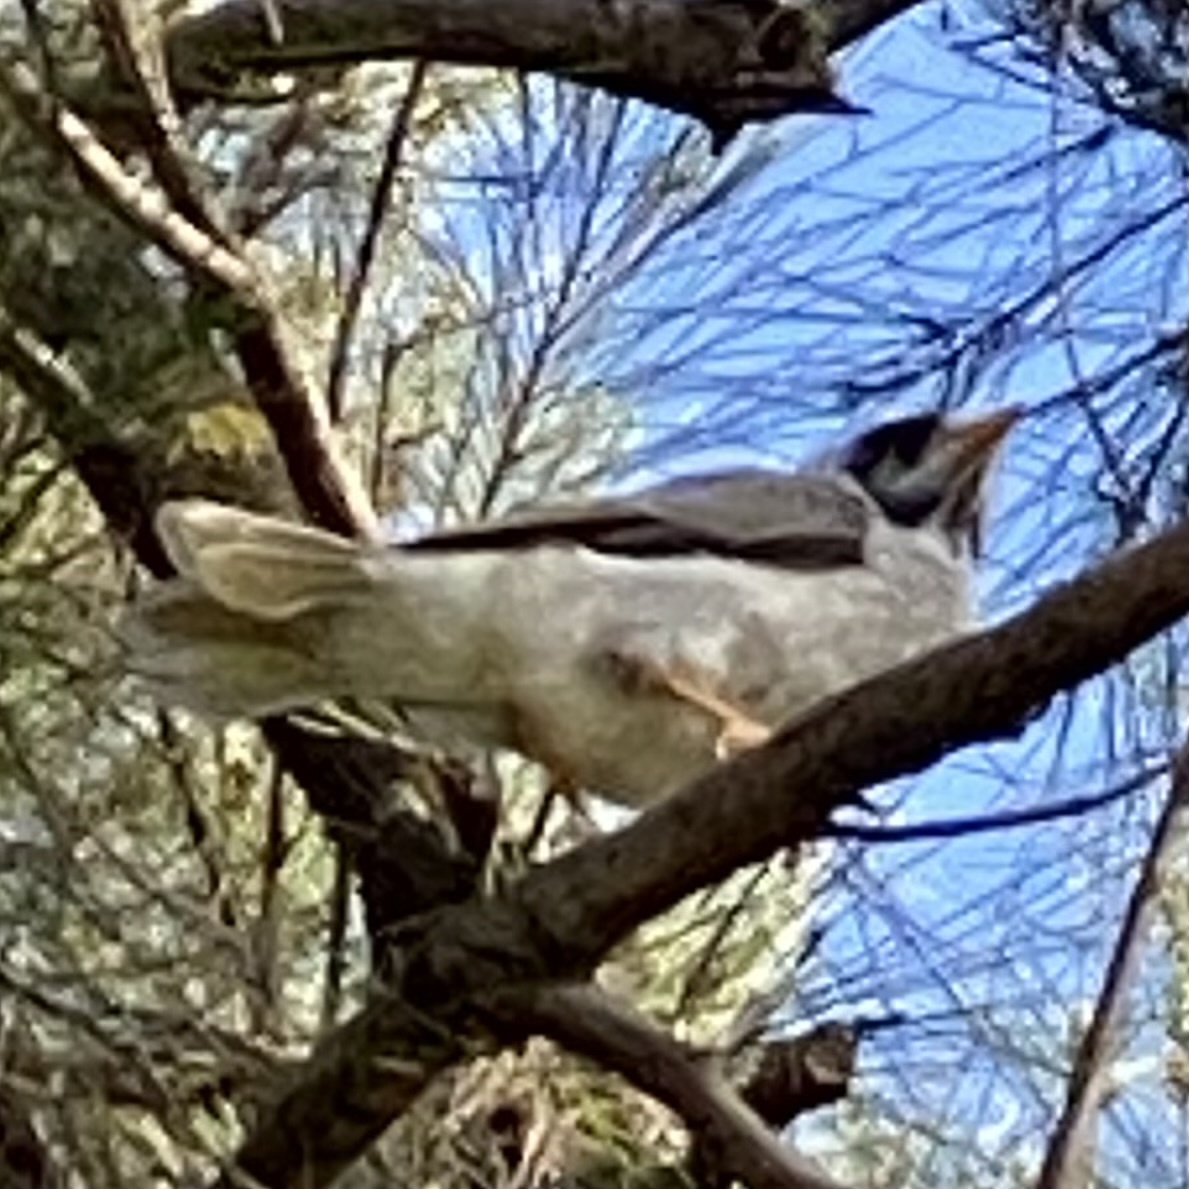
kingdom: Animalia
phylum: Chordata
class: Aves
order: Passeriformes
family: Meliphagidae
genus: Manorina
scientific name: Manorina melanocephala
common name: Noisy miner
